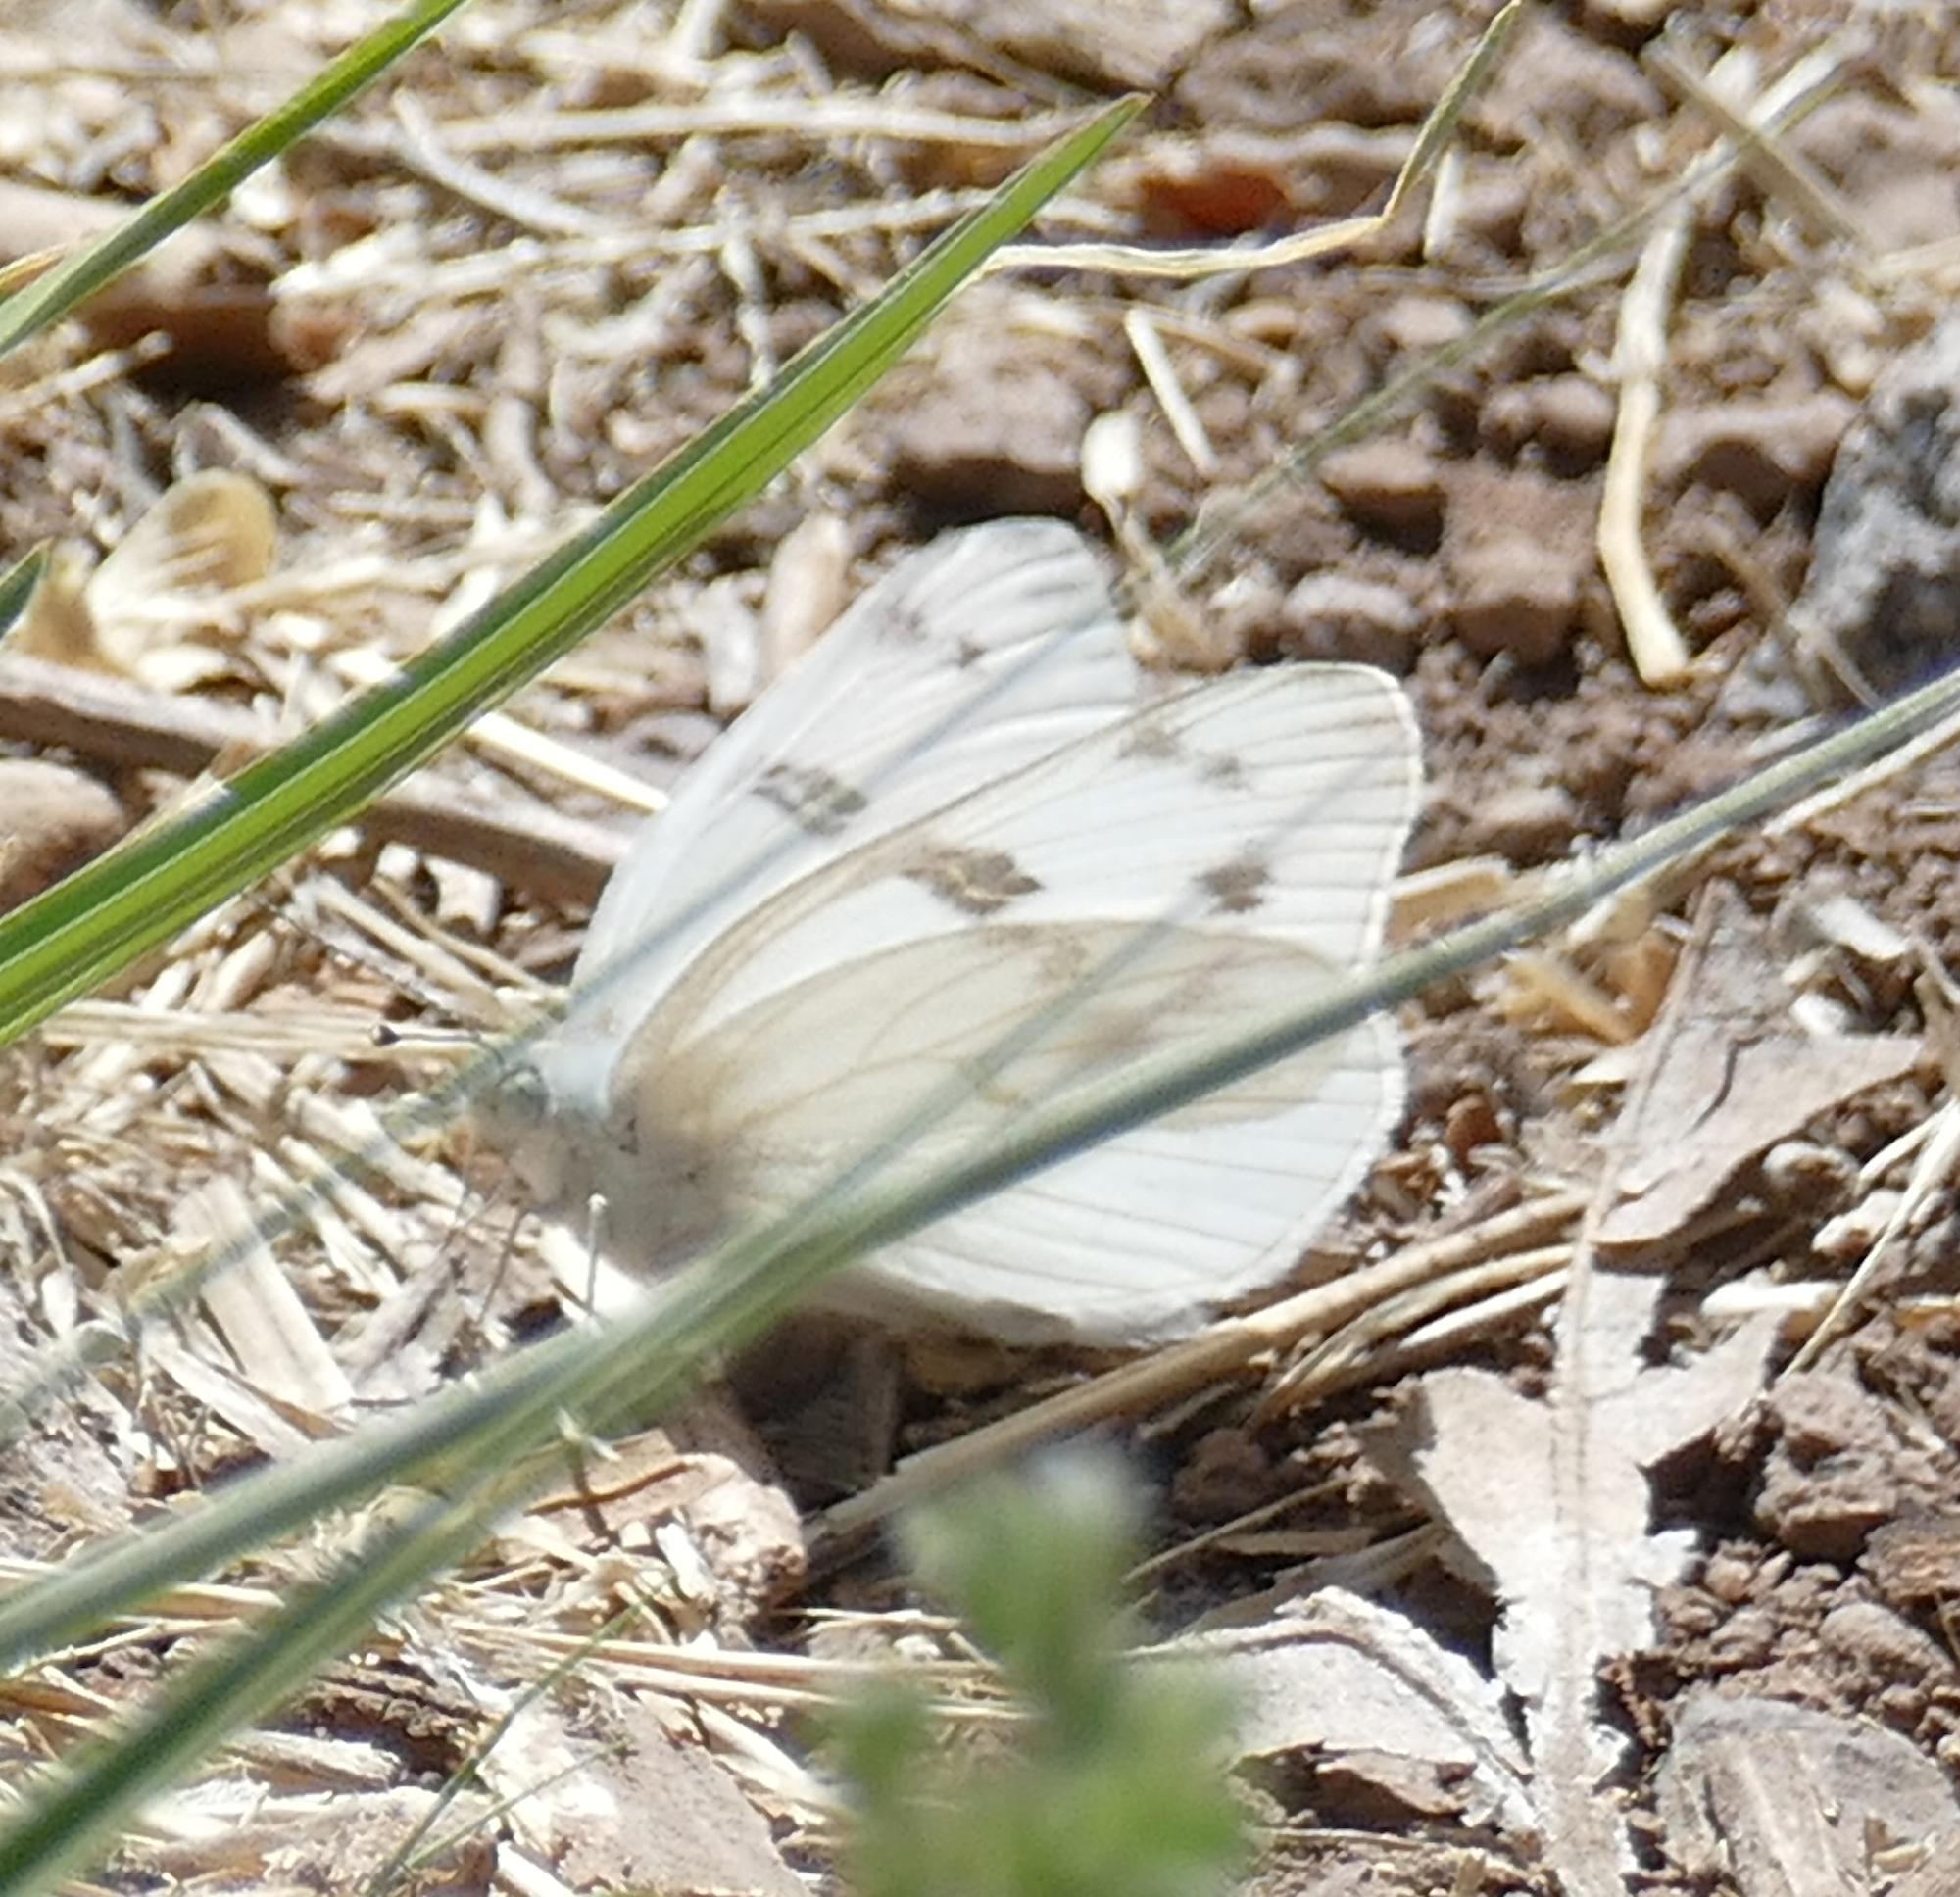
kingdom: Animalia
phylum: Arthropoda
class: Insecta
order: Lepidoptera
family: Pieridae
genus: Pontia
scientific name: Pontia protodice
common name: Checkered white
